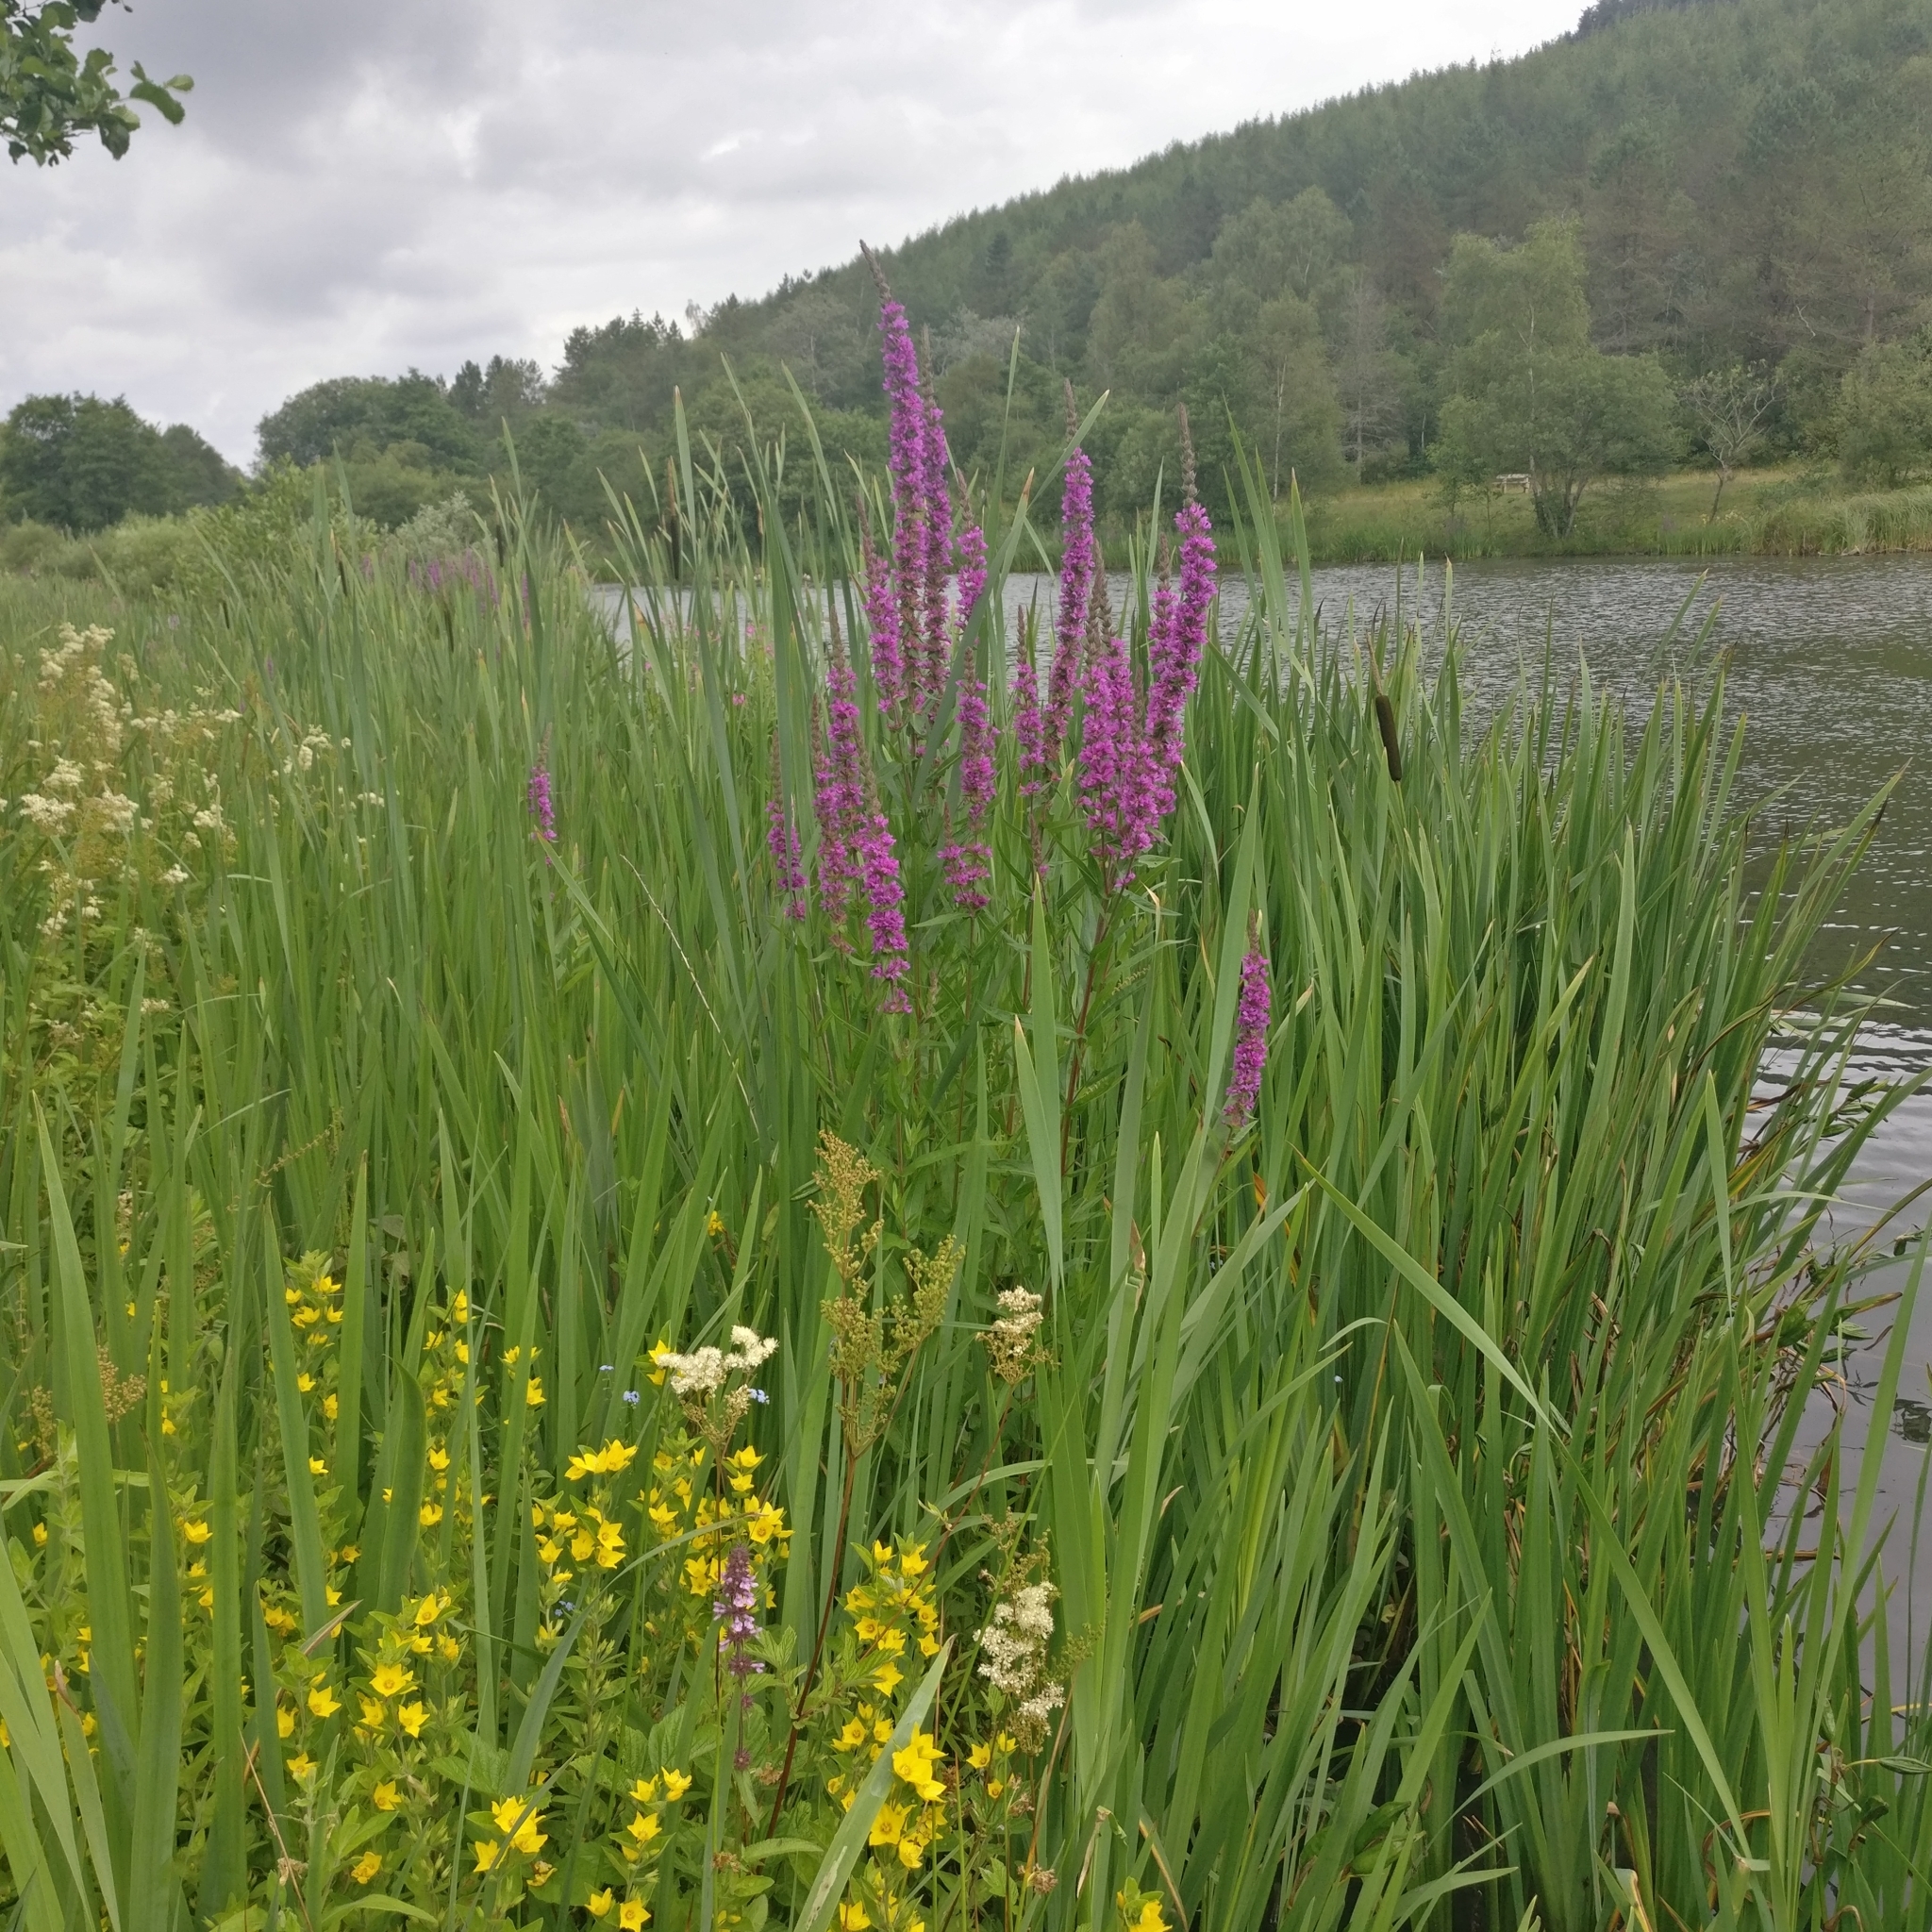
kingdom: Plantae
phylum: Tracheophyta
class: Magnoliopsida
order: Myrtales
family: Lythraceae
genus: Lythrum
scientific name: Lythrum salicaria
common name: Purple loosestrife
